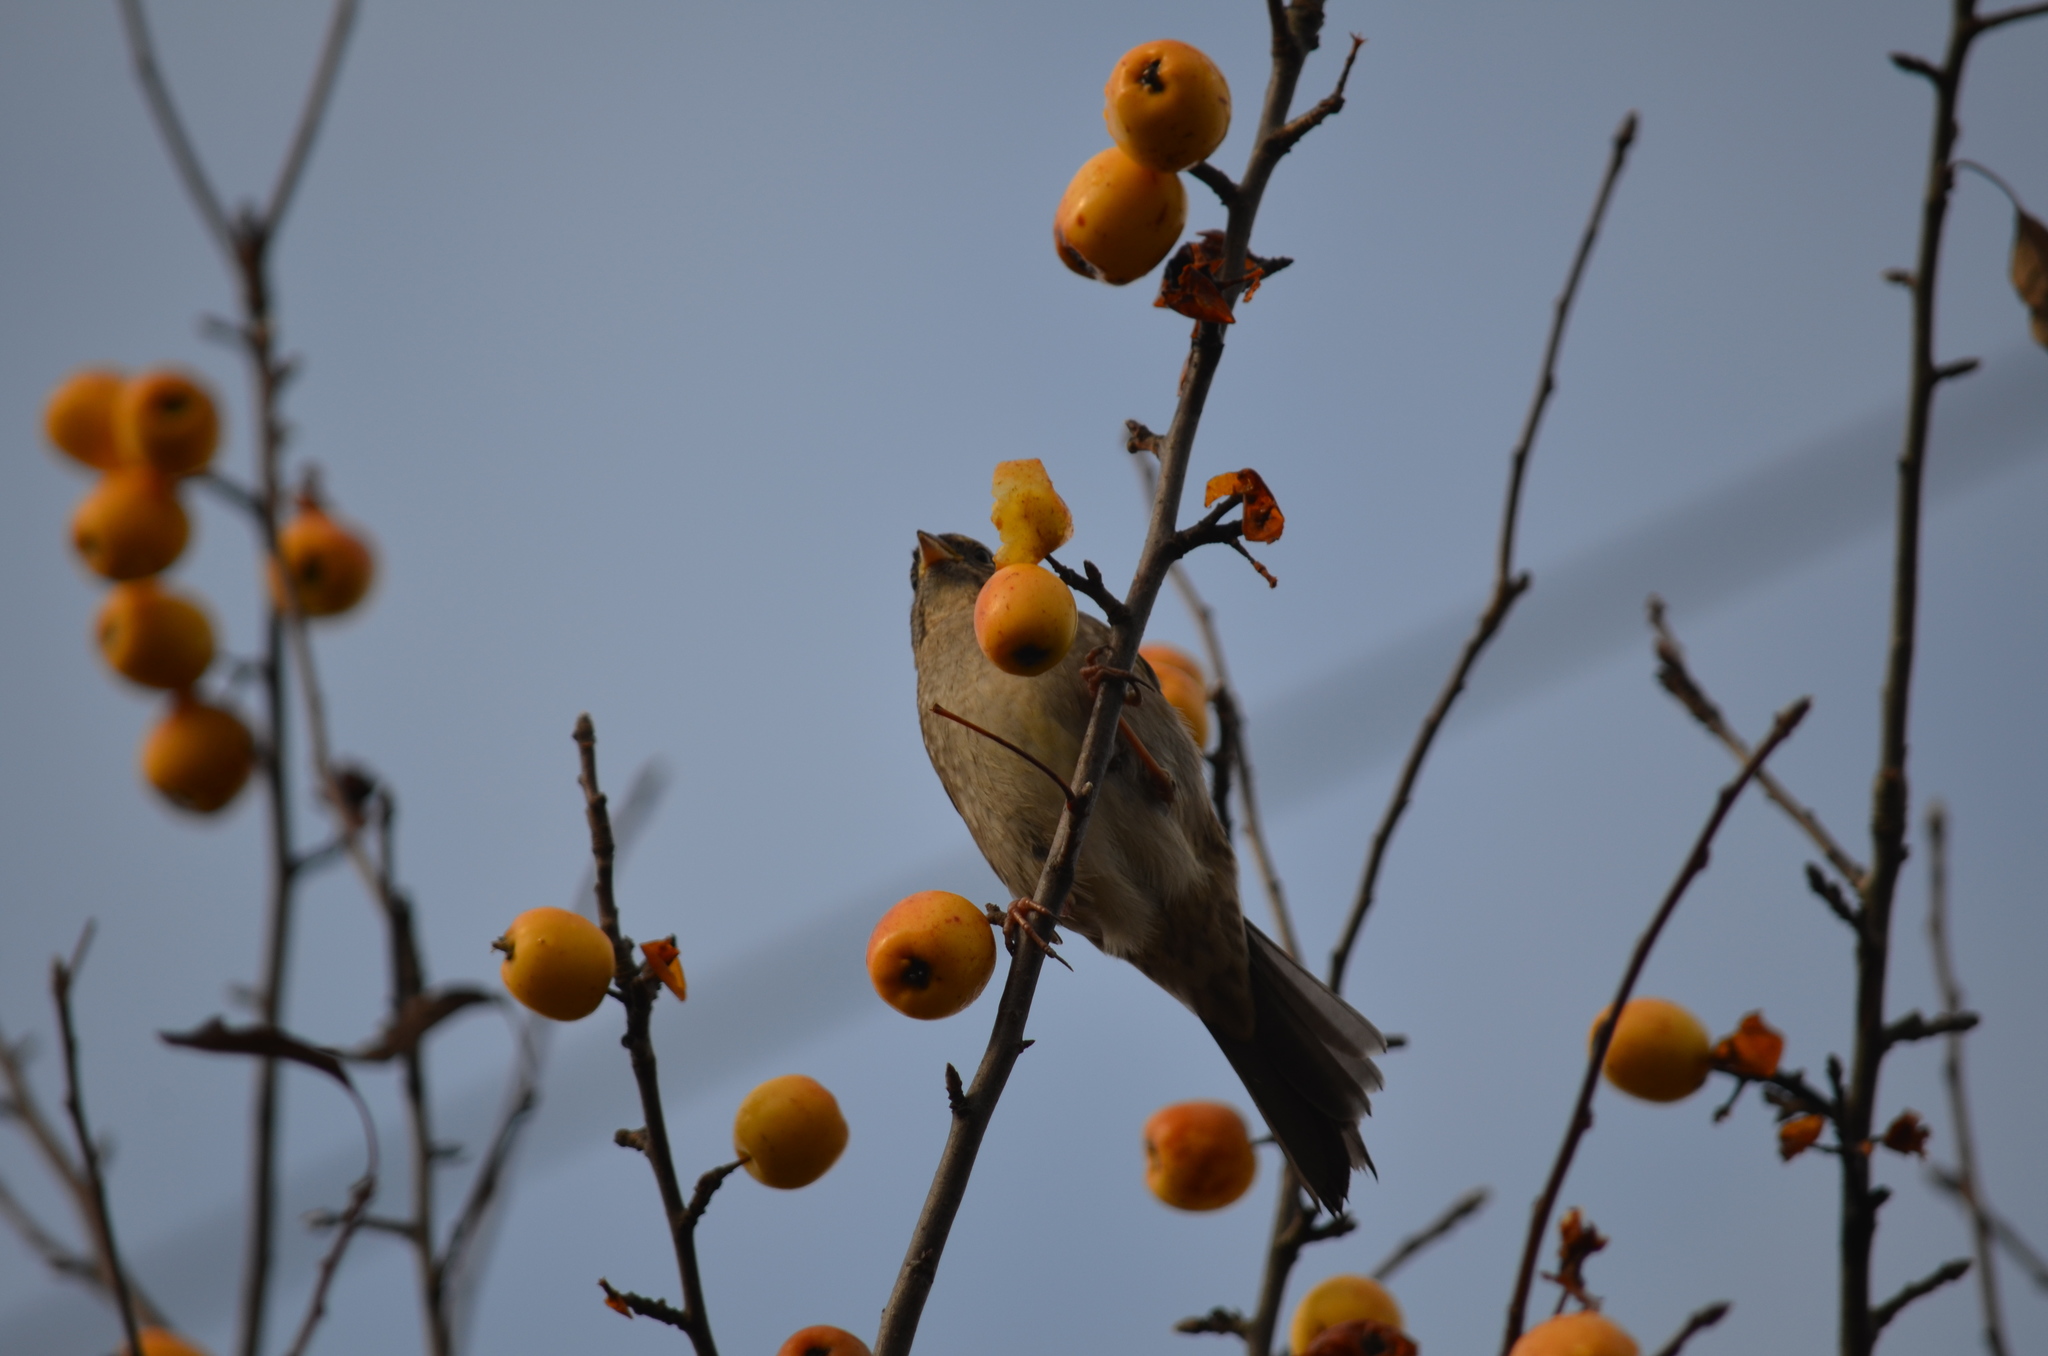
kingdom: Animalia
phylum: Chordata
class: Aves
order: Passeriformes
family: Passerellidae
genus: Zonotrichia
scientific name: Zonotrichia atricapilla
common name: Golden-crowned sparrow
